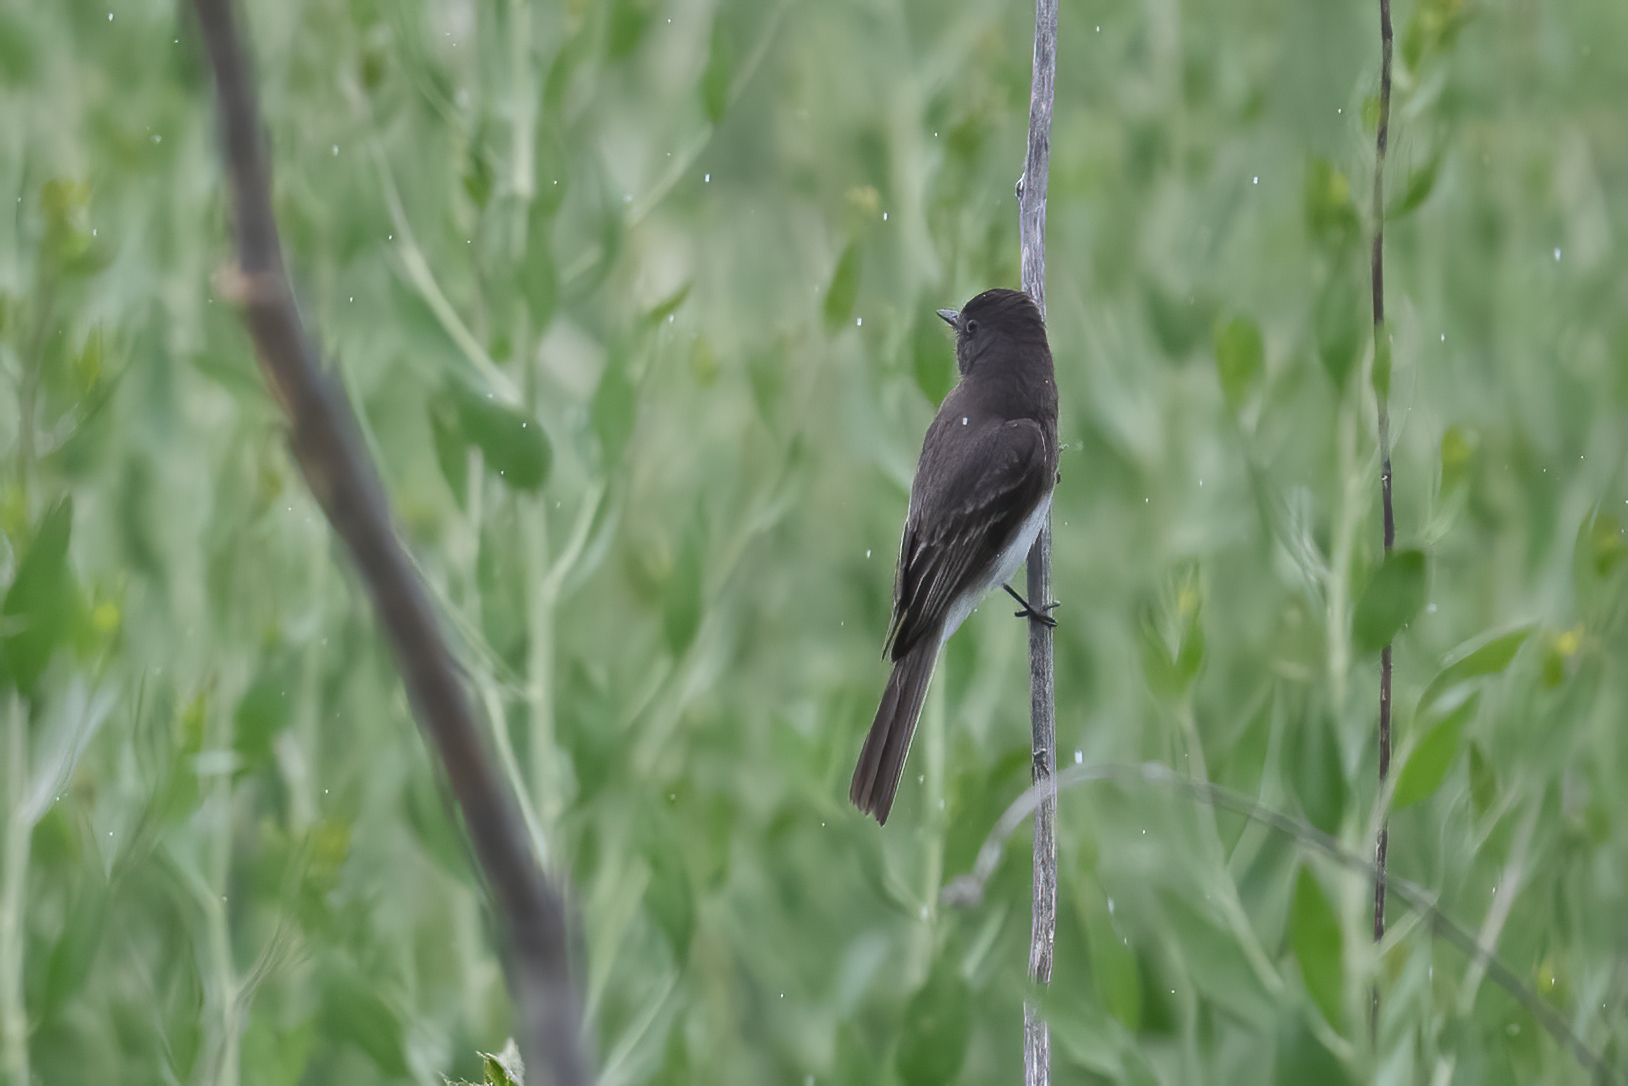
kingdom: Animalia
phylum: Chordata
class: Aves
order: Passeriformes
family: Tyrannidae
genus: Sayornis
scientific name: Sayornis nigricans
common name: Black phoebe
